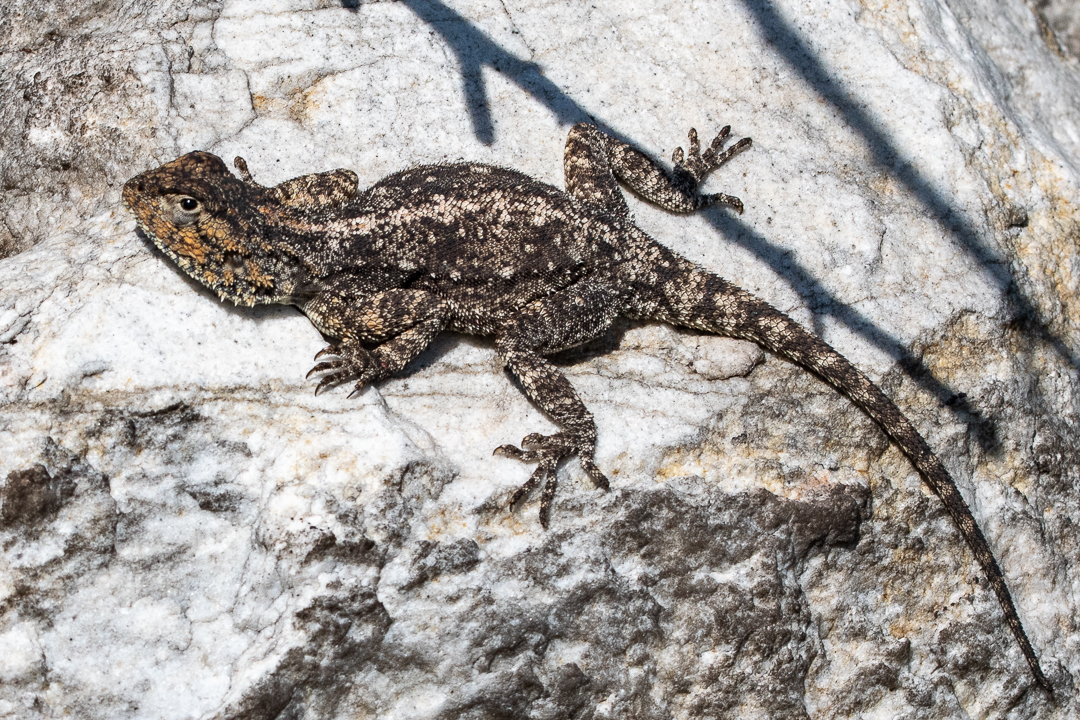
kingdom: Animalia
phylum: Chordata
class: Squamata
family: Agamidae
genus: Agama
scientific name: Agama atra
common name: Southern african rock agama
